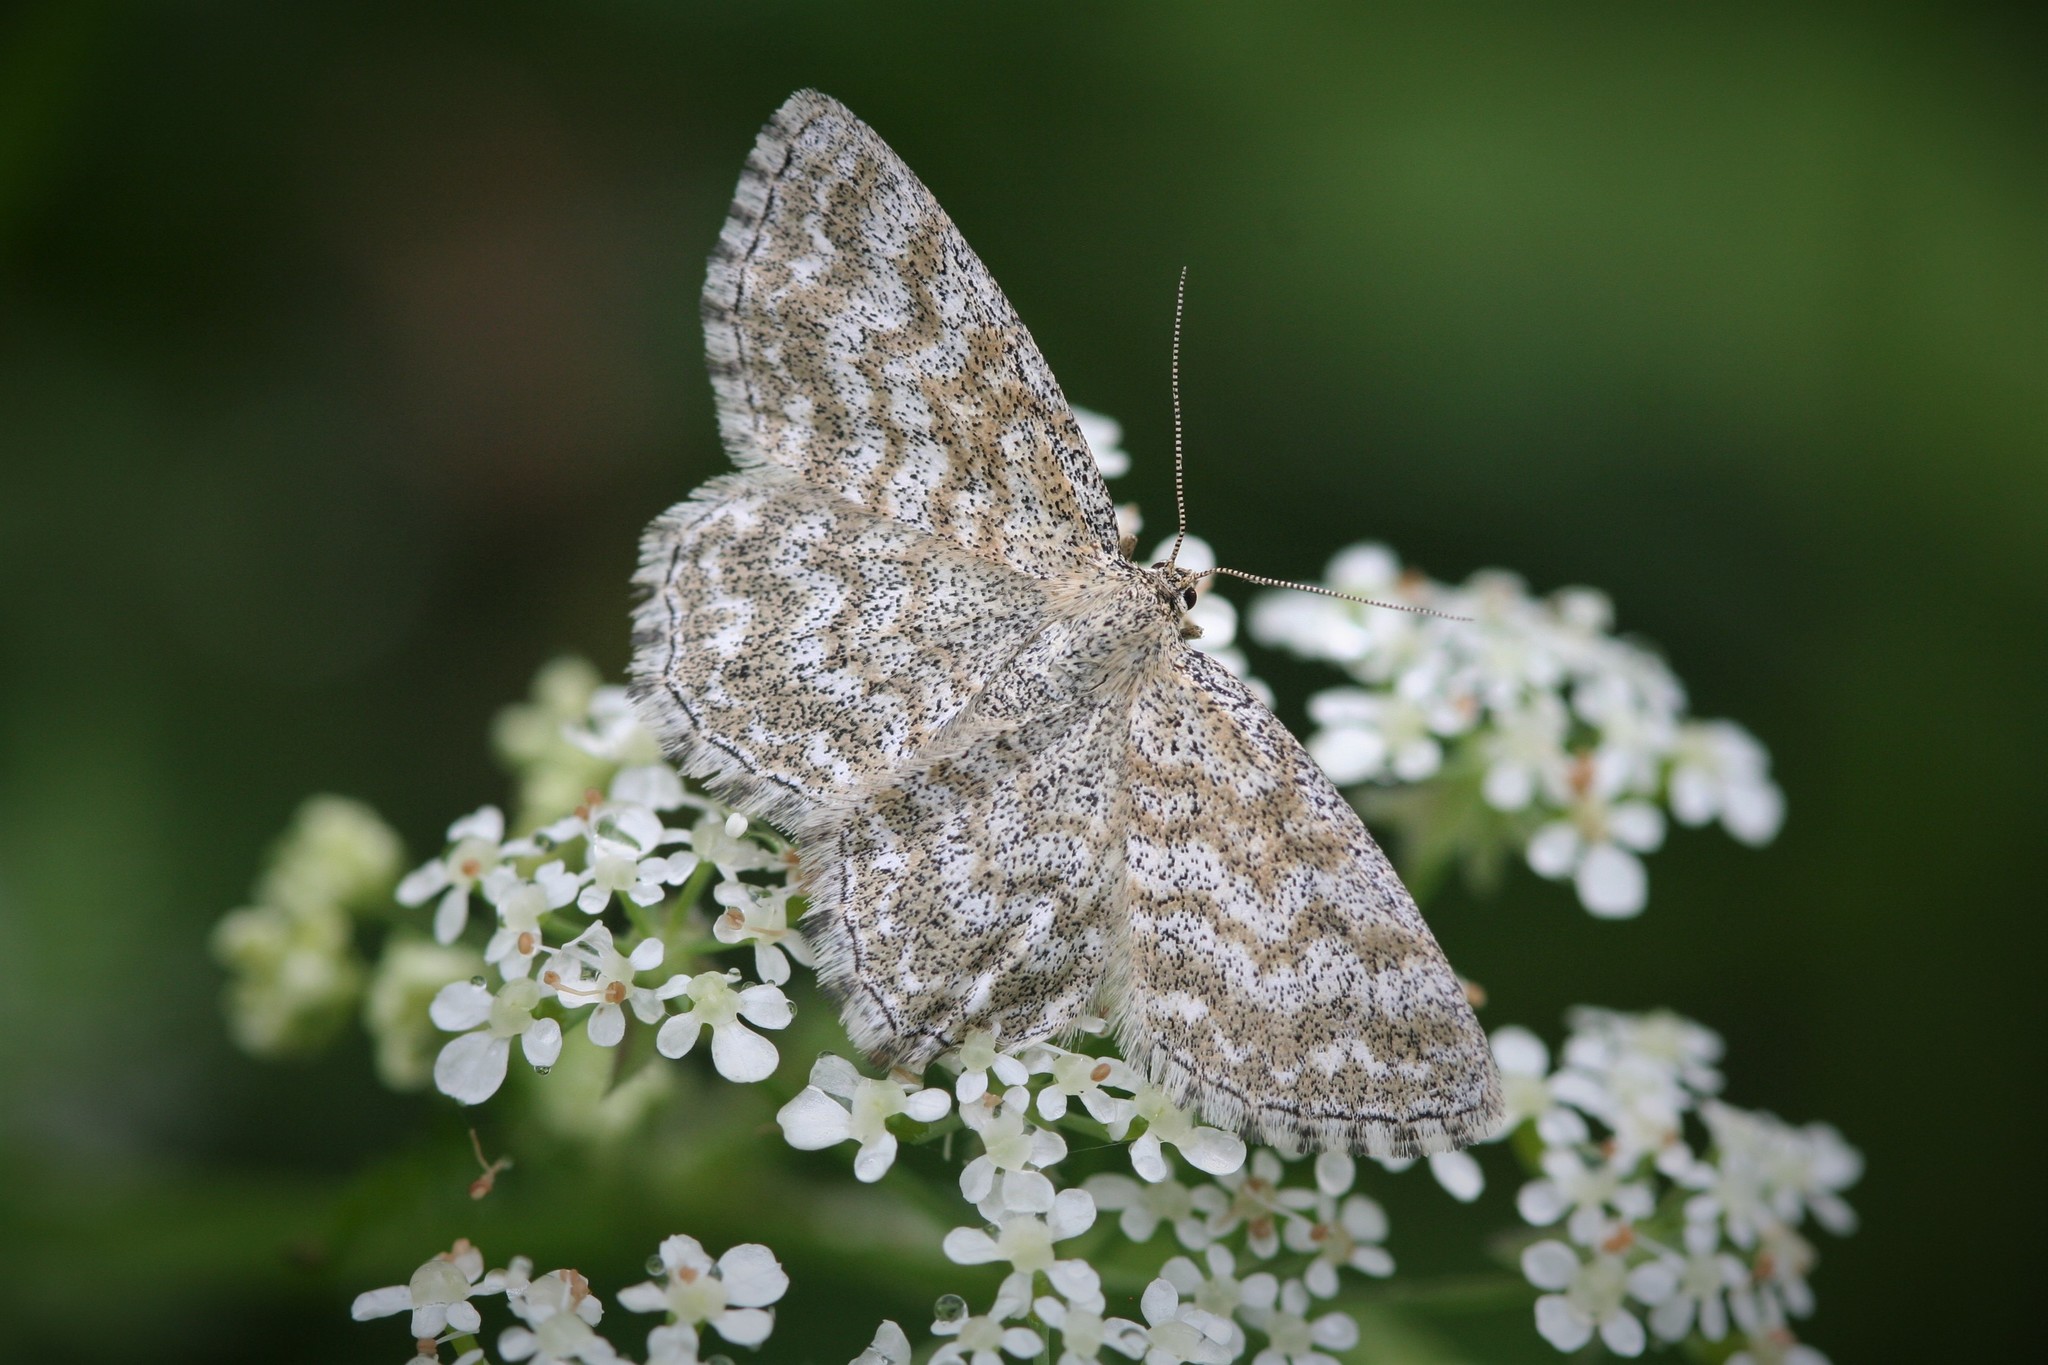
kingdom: Animalia
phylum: Arthropoda
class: Insecta
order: Lepidoptera
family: Geometridae
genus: Scopula
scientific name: Scopula immorata
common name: Lewes wave
